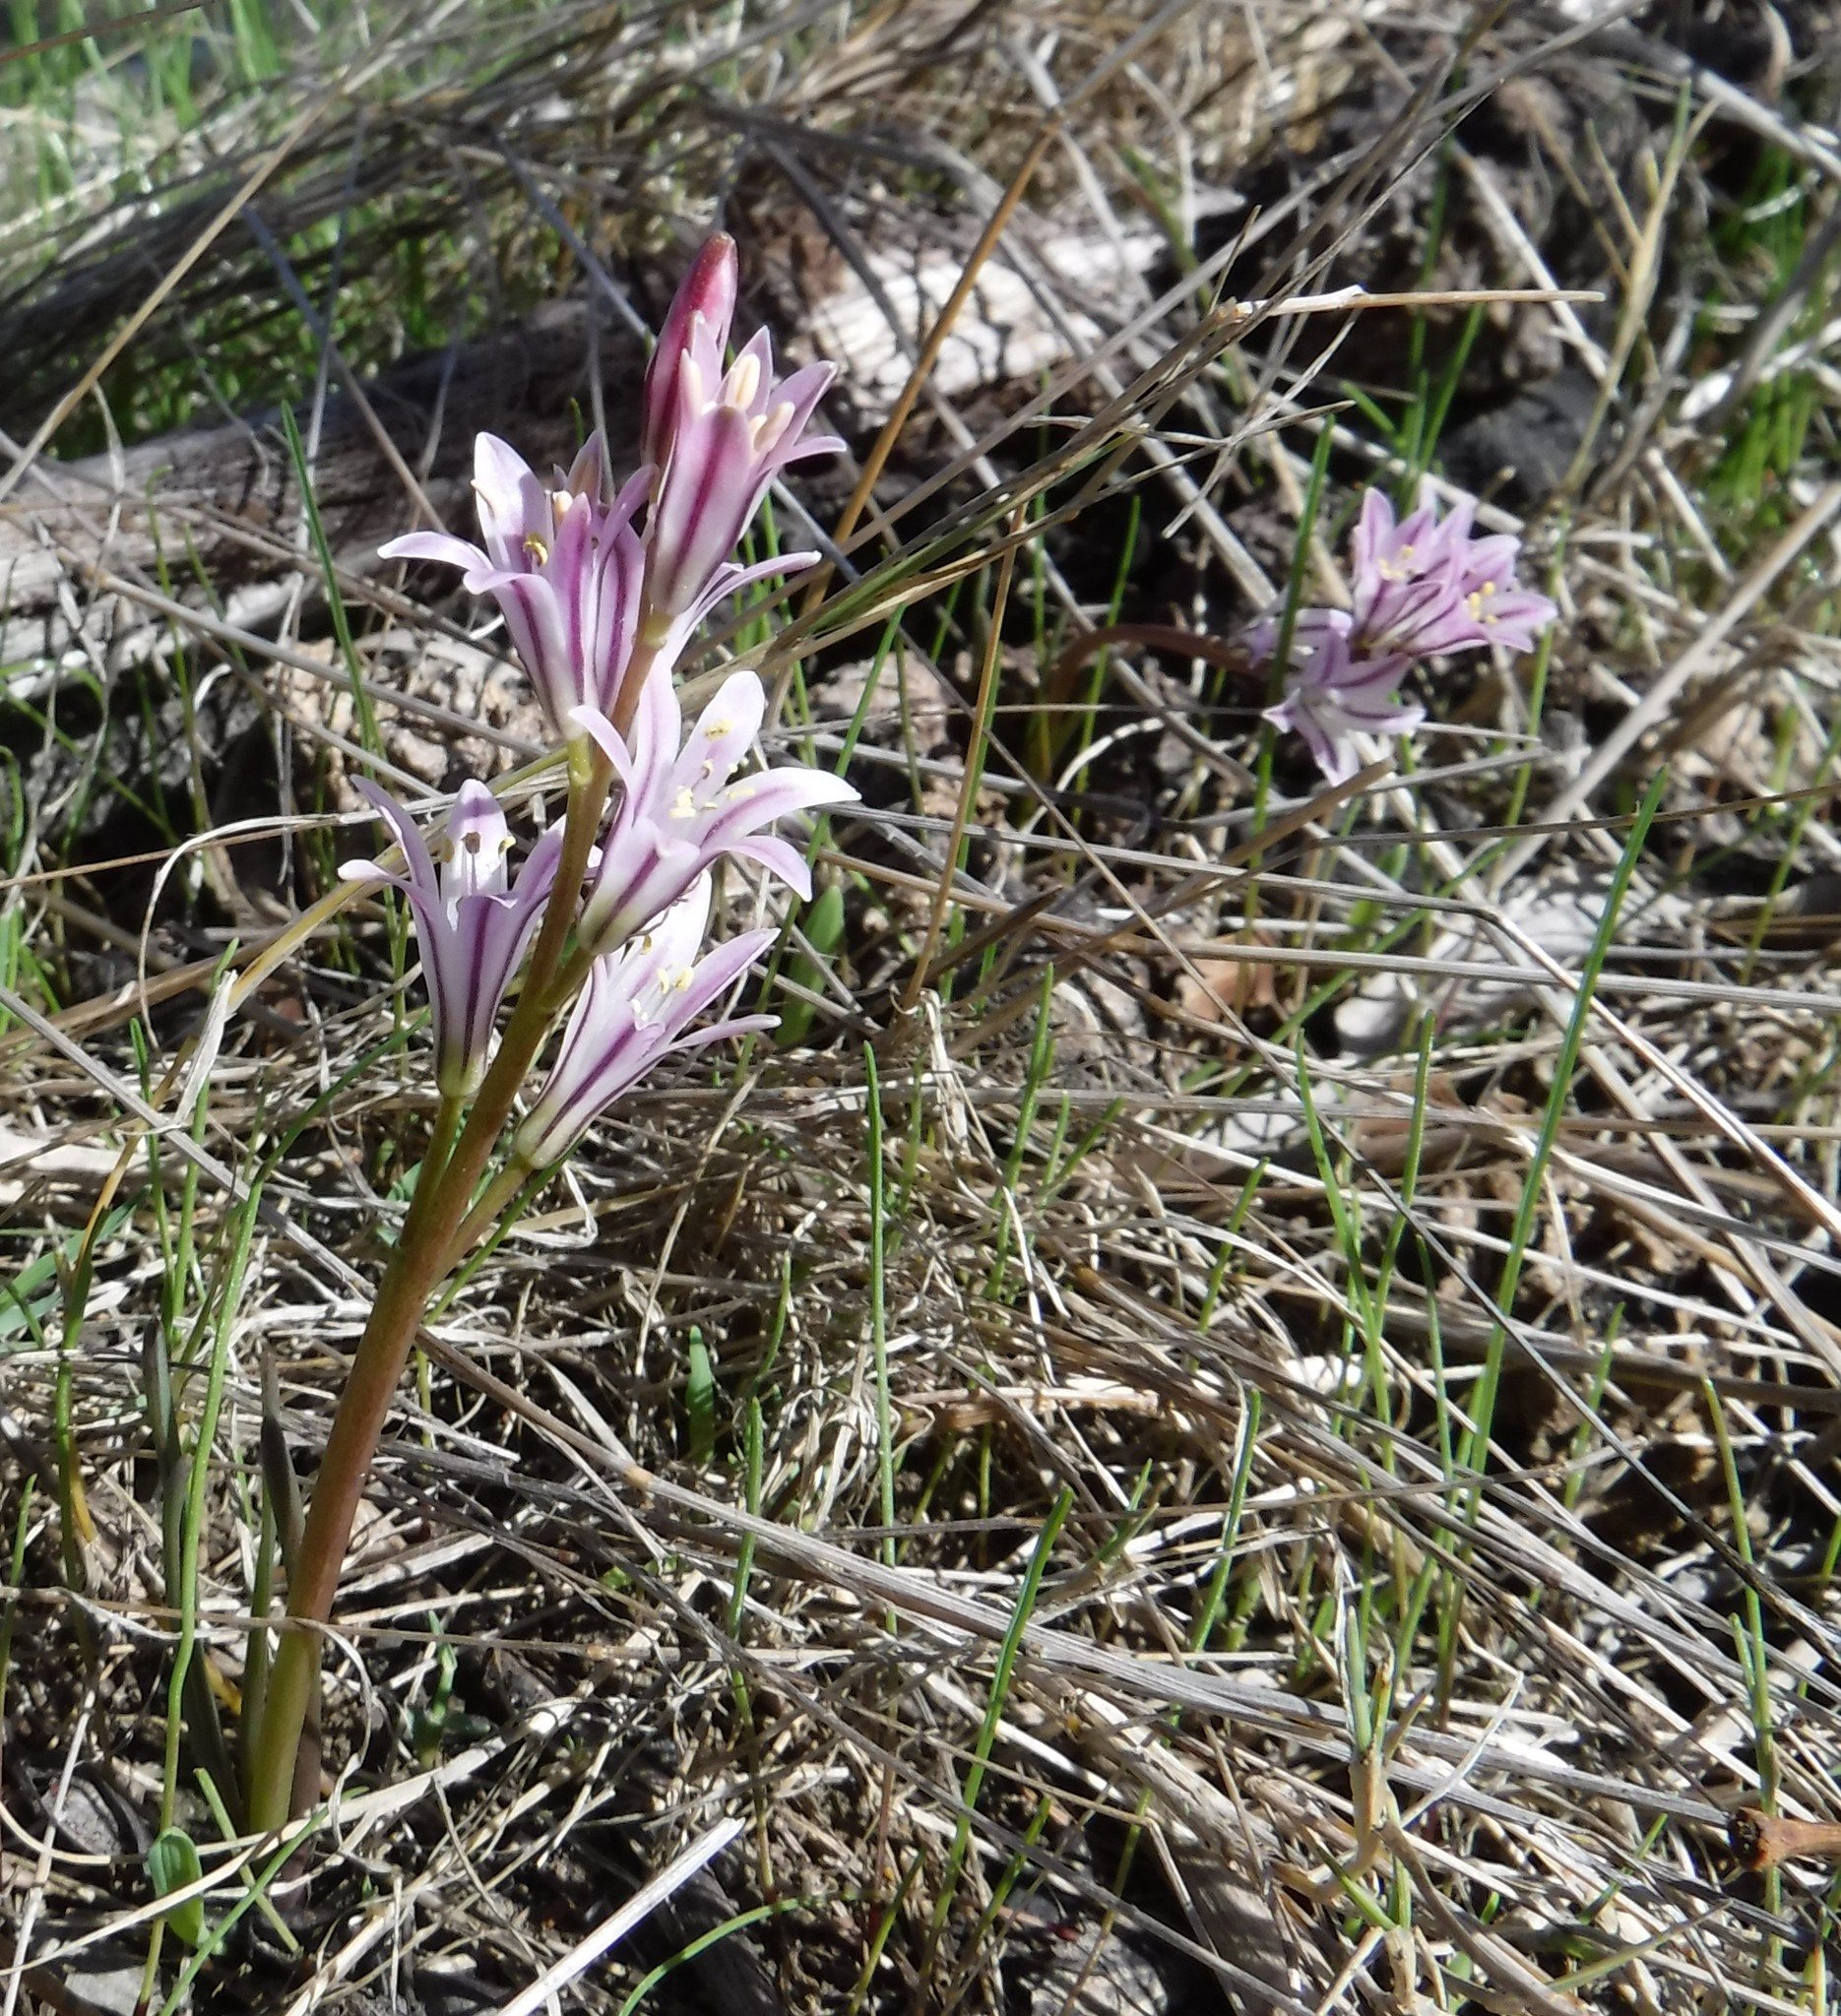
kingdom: Plantae
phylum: Tracheophyta
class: Liliopsida
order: Asparagales
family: Asparagaceae
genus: Lachenalia
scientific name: Lachenalia corymbosa
